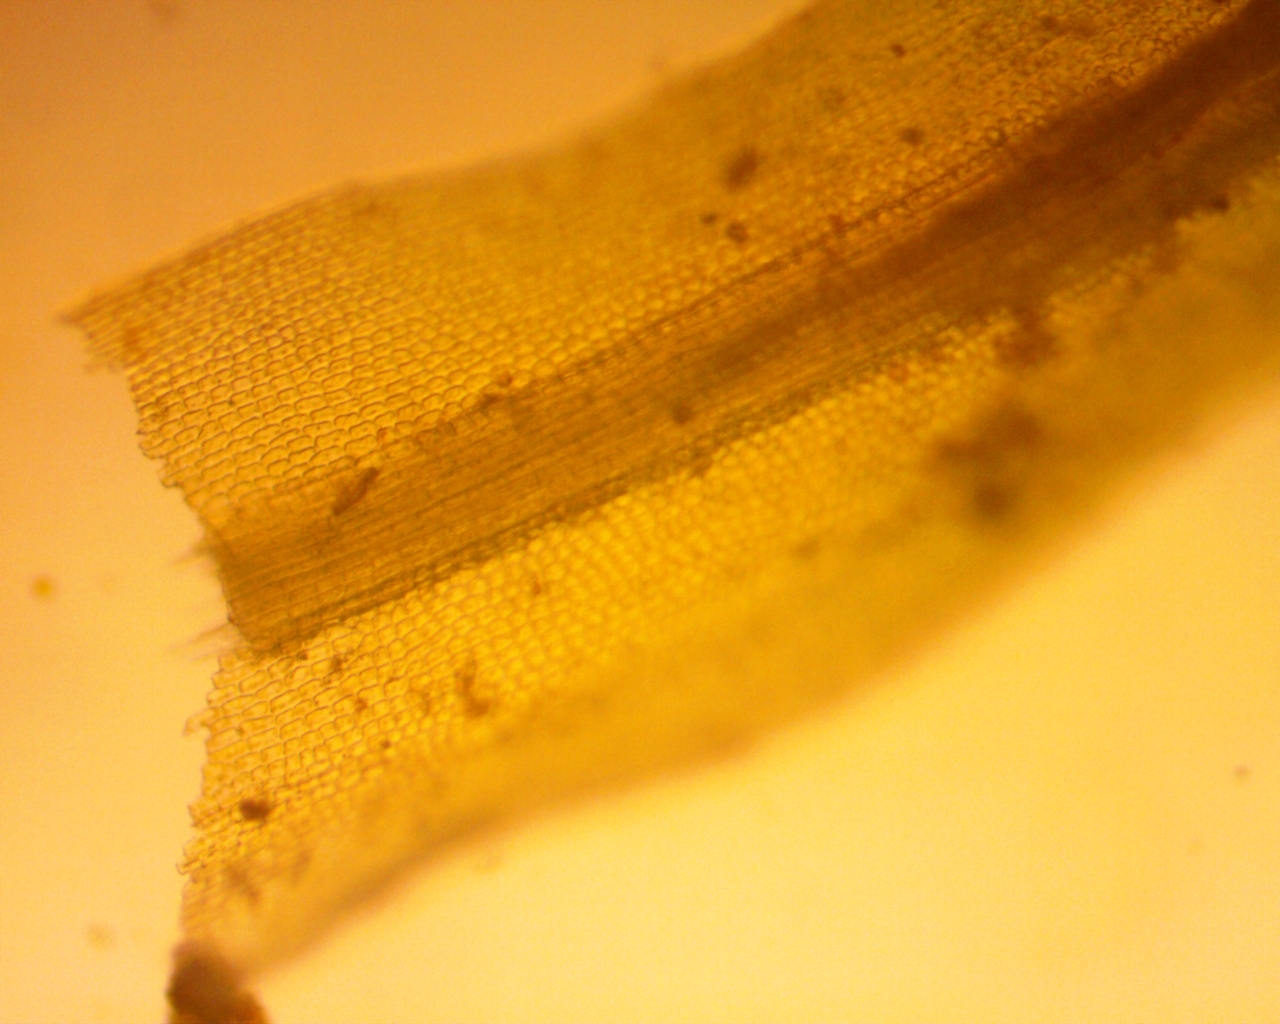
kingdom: Plantae
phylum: Bryophyta
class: Polytrichopsida
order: Polytrichales
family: Polytrichaceae
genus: Atrichum
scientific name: Atrichum angustatum
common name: Lesser smoothcap
